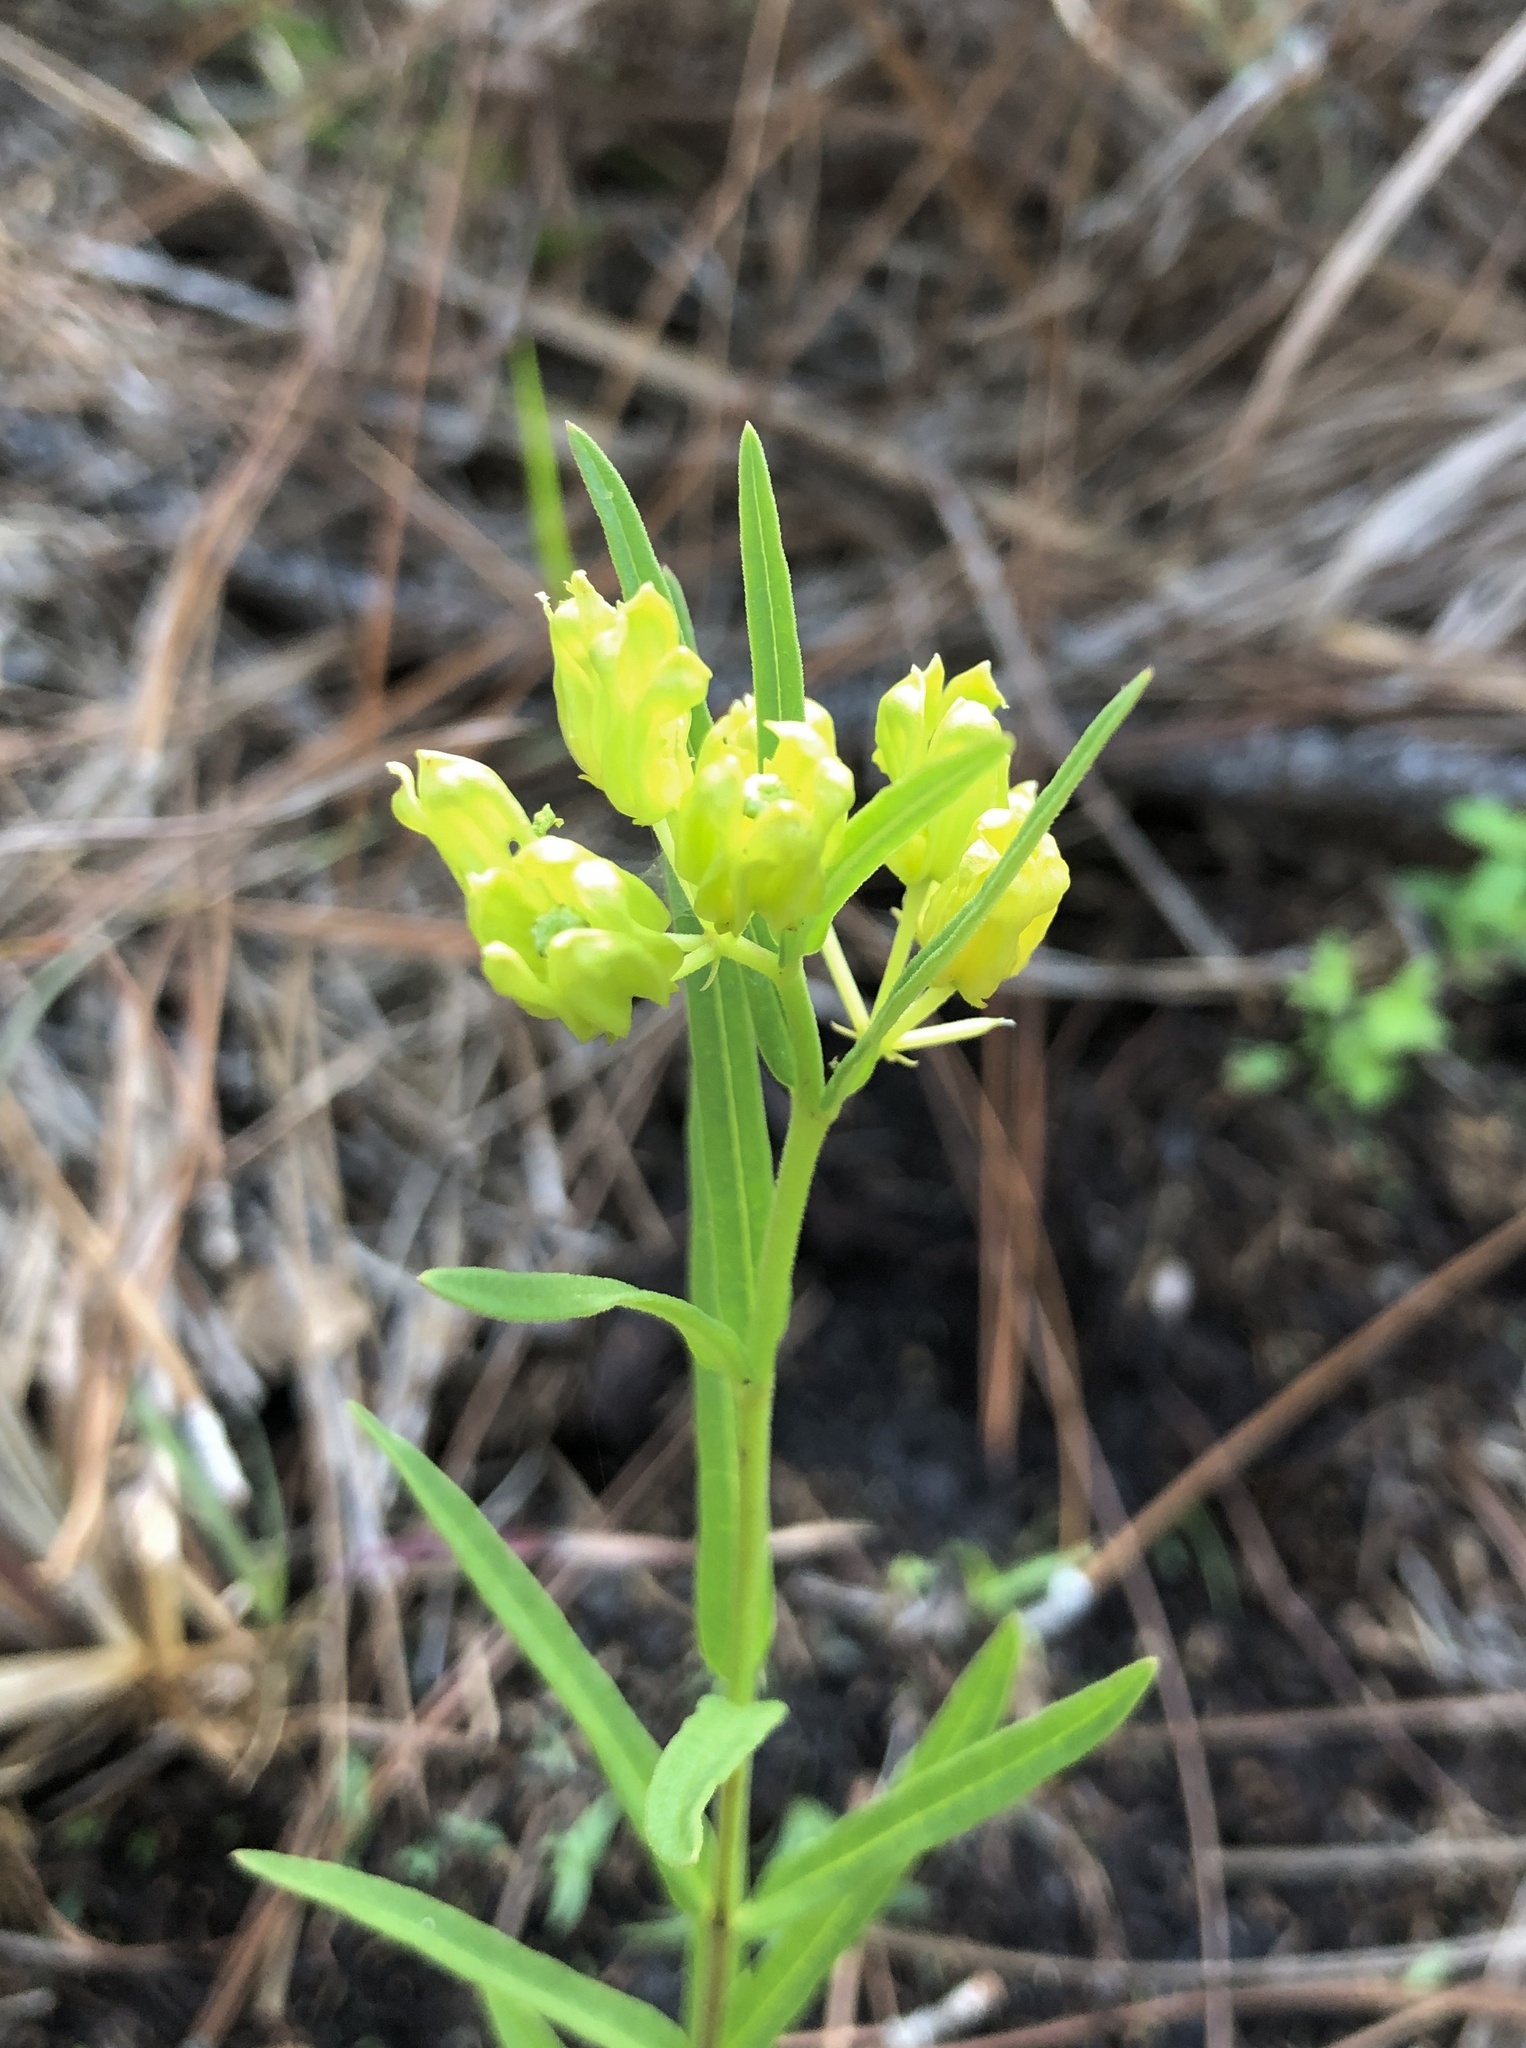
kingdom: Plantae
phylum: Tracheophyta
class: Magnoliopsida
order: Gentianales
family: Apocynaceae
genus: Asclepias
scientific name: Asclepias pedicellata
